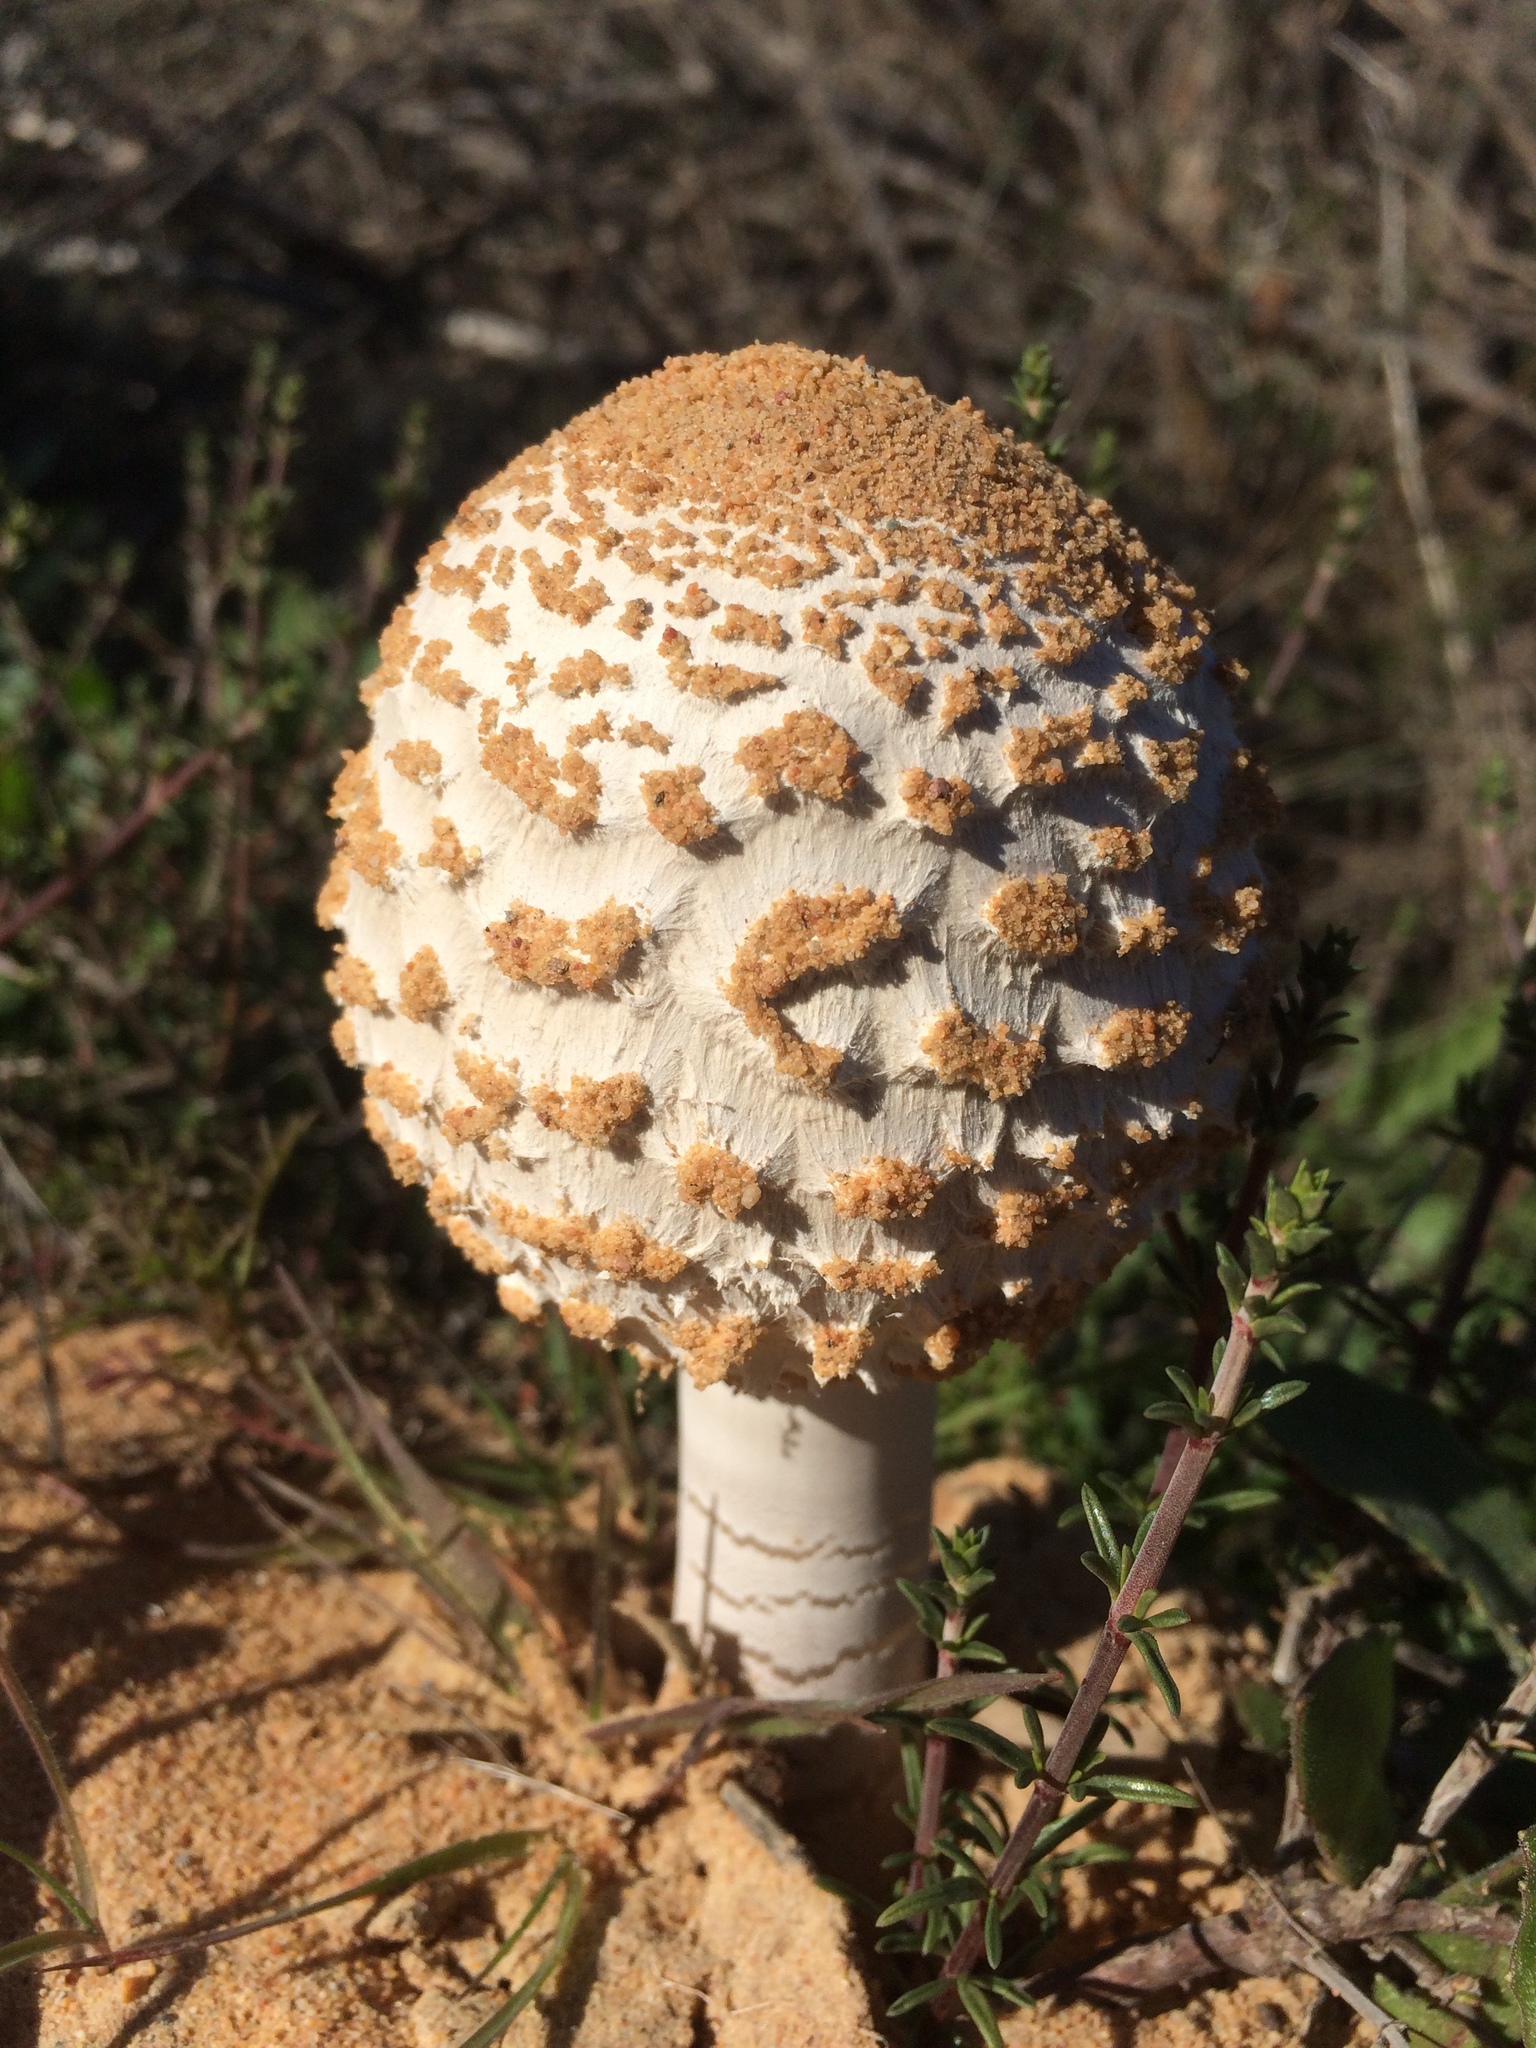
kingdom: Fungi
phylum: Basidiomycota
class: Agaricomycetes
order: Agaricales
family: Agaricaceae
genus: Macrolepiota
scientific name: Macrolepiota zeyheri
